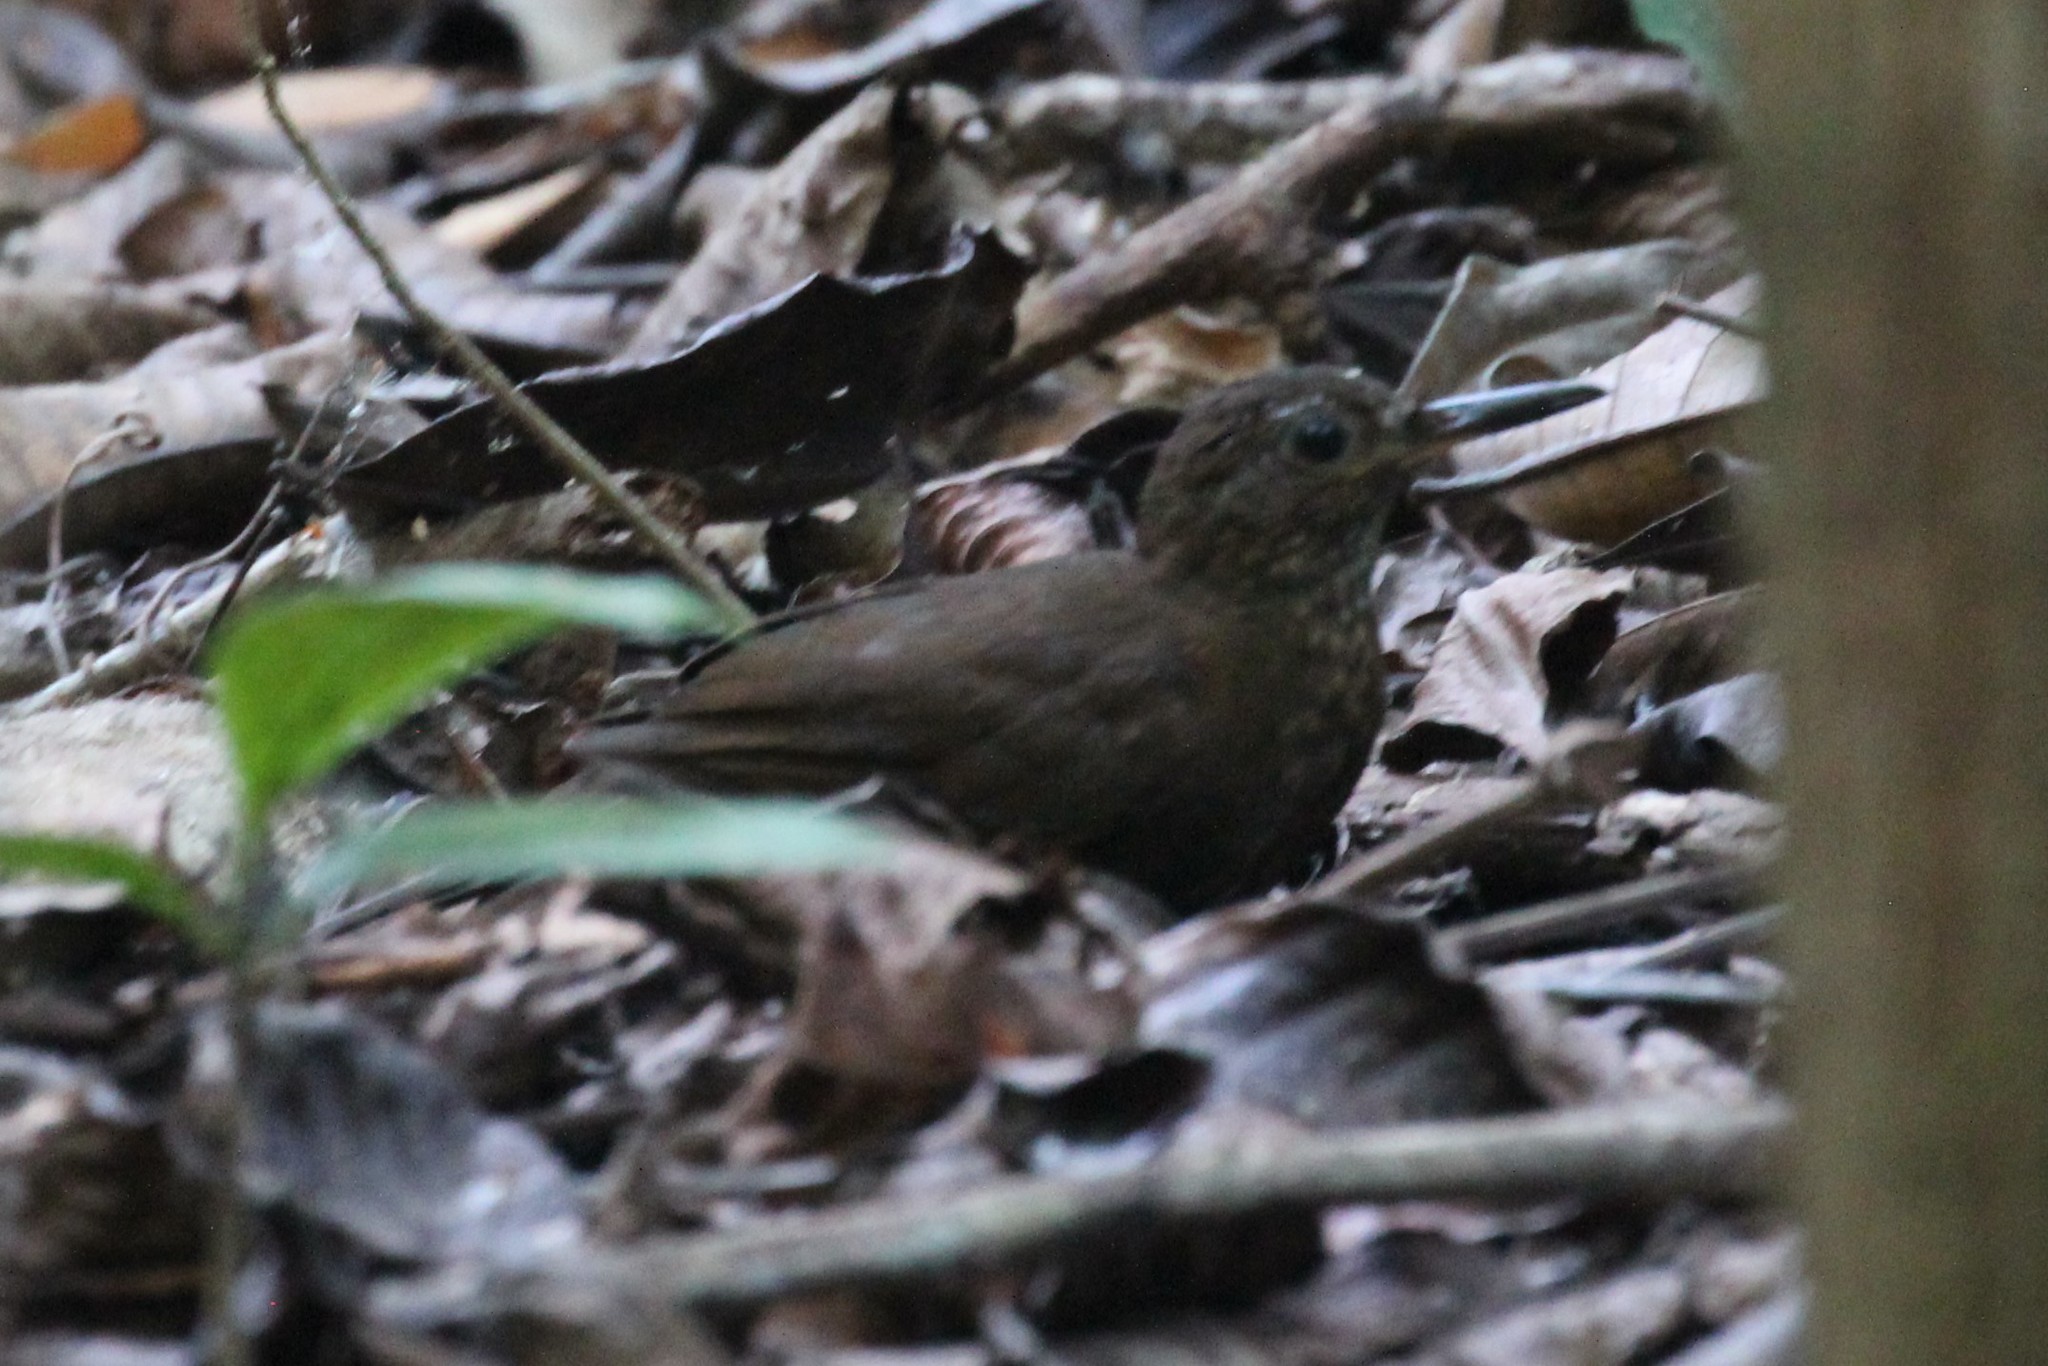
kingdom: Animalia
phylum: Chordata
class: Aves
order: Passeriformes
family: Furnariidae
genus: Sclerurus
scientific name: Sclerurus guatemalensis
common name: Scaly-throated leaftosser
